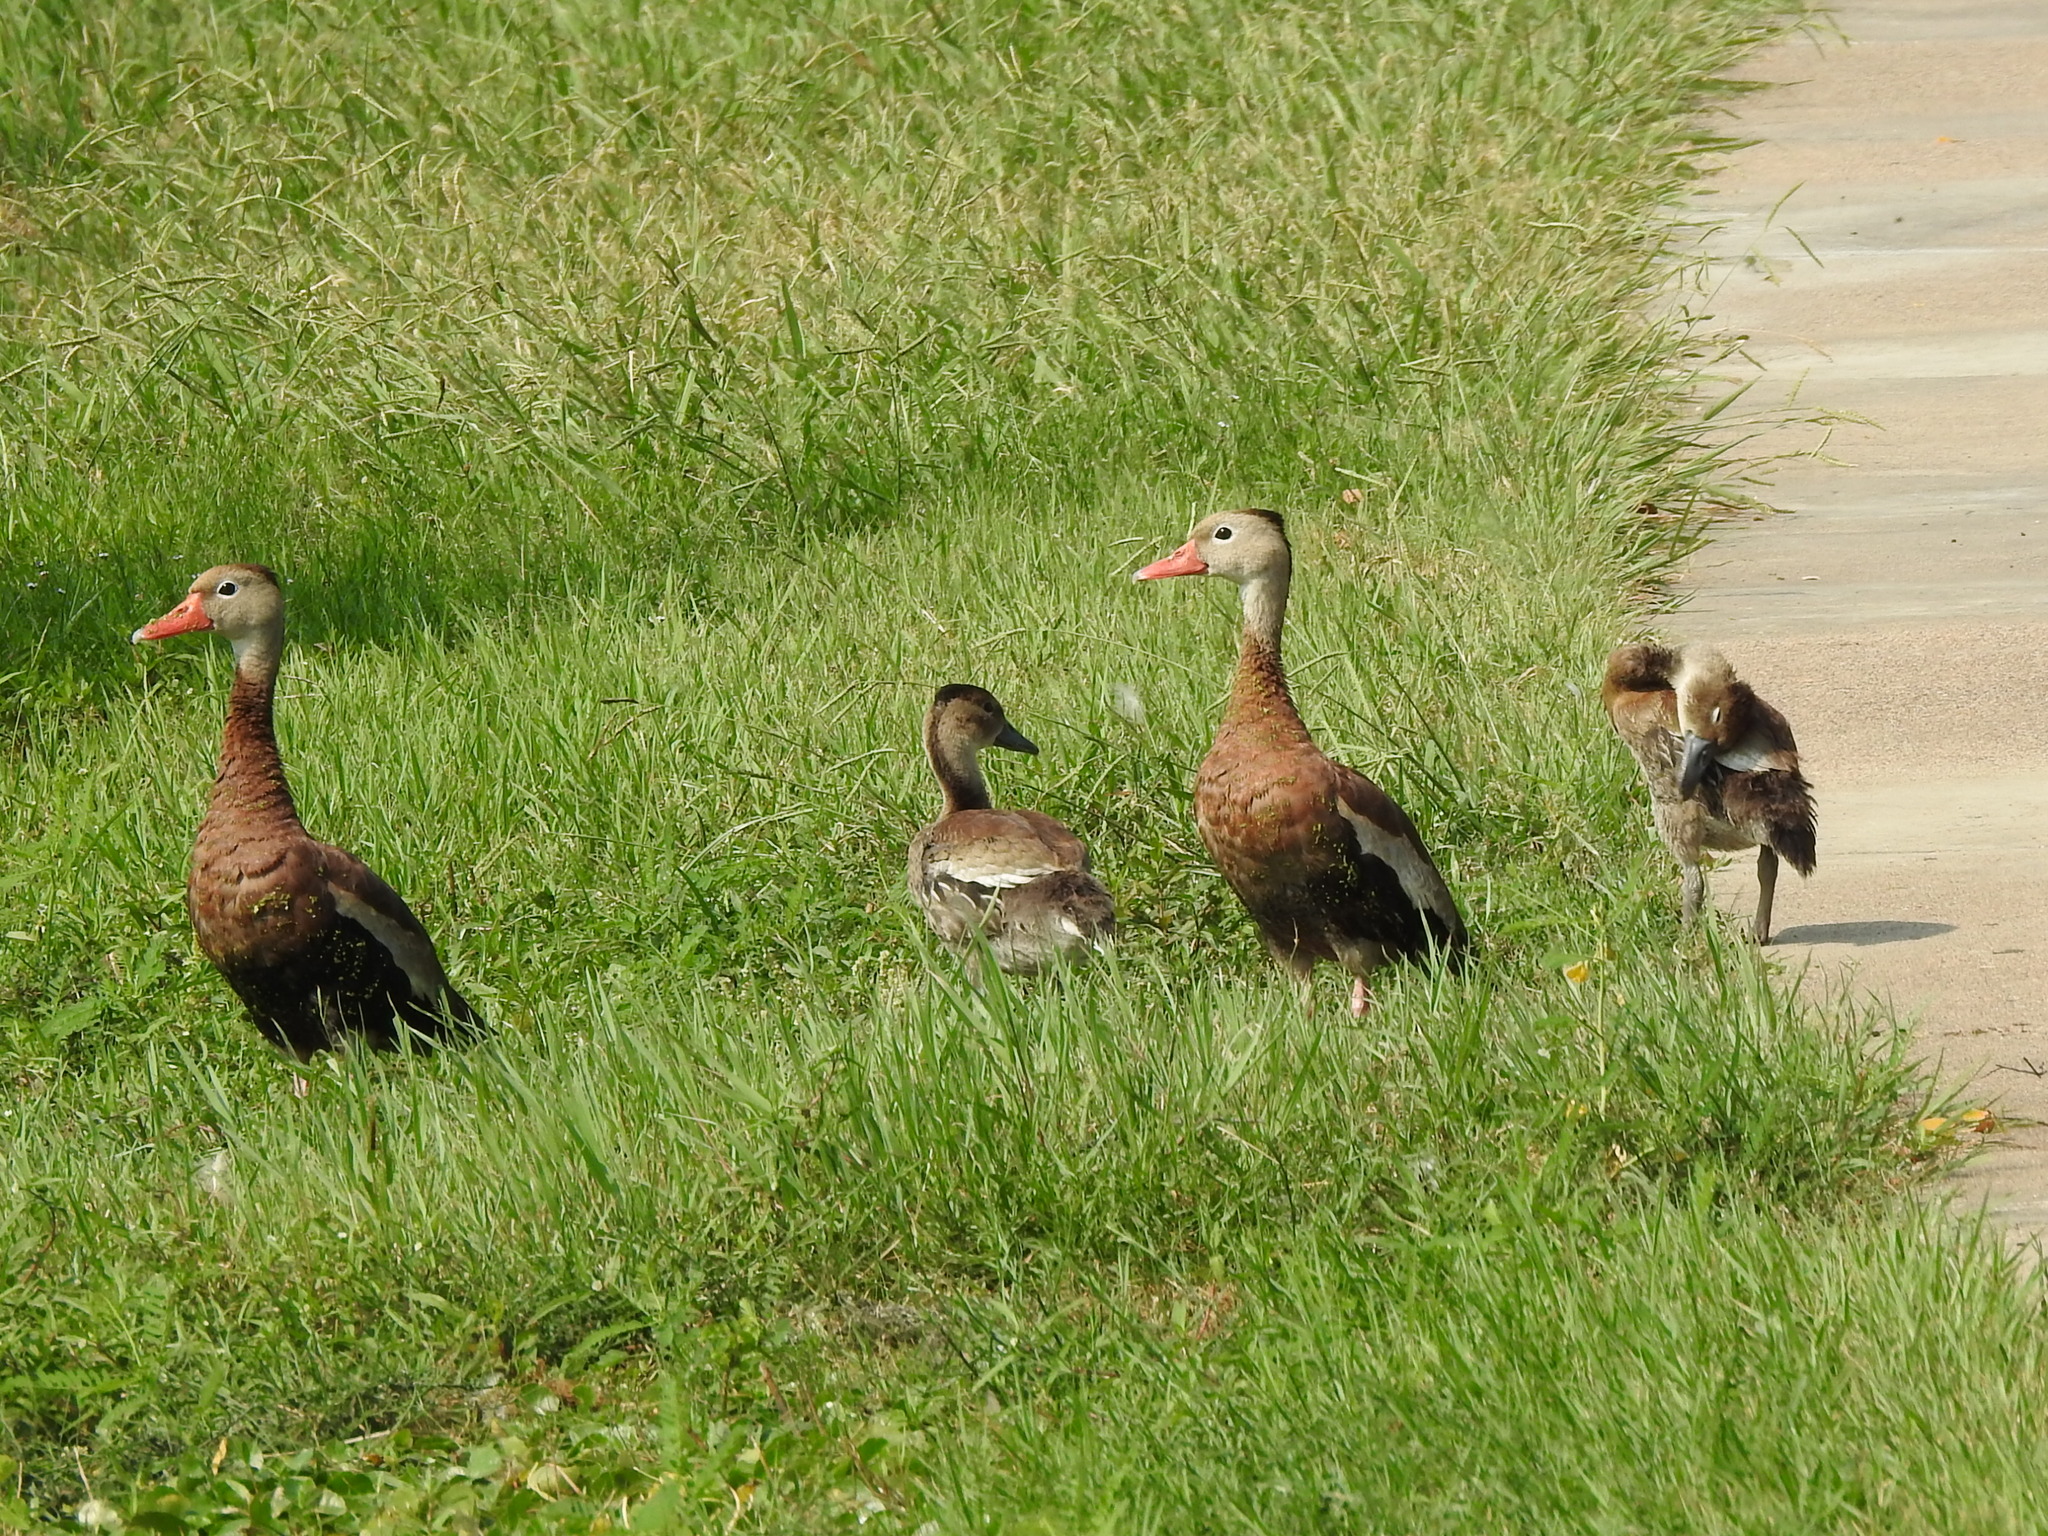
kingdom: Animalia
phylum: Chordata
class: Aves
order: Anseriformes
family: Anatidae
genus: Dendrocygna
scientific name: Dendrocygna autumnalis
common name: Black-bellied whistling duck
